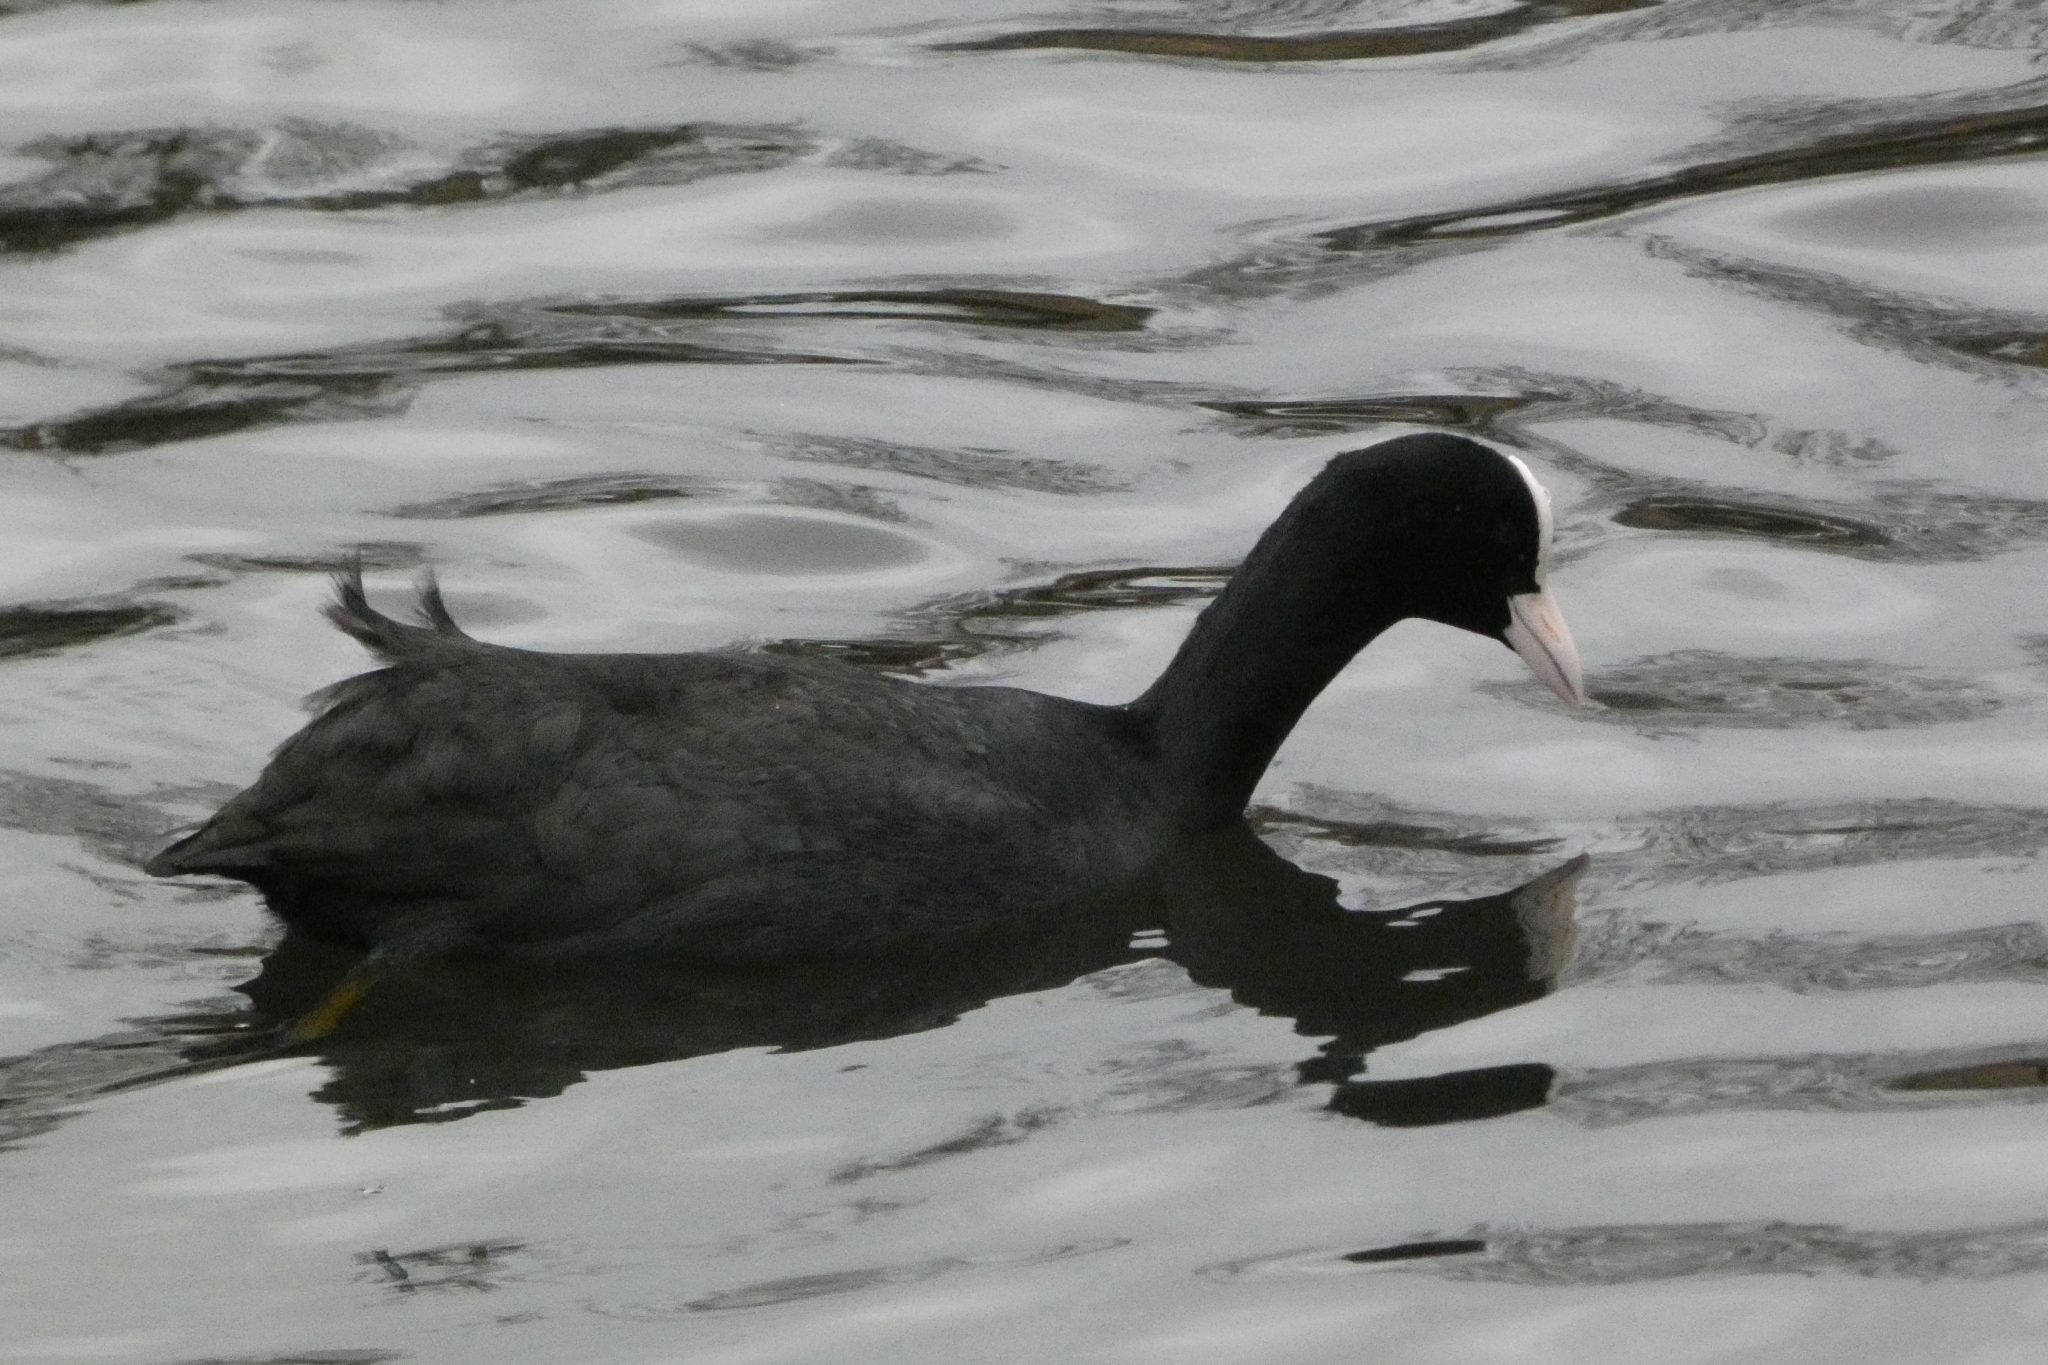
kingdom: Animalia
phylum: Chordata
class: Aves
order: Gruiformes
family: Rallidae
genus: Fulica
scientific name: Fulica atra
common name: Eurasian coot
